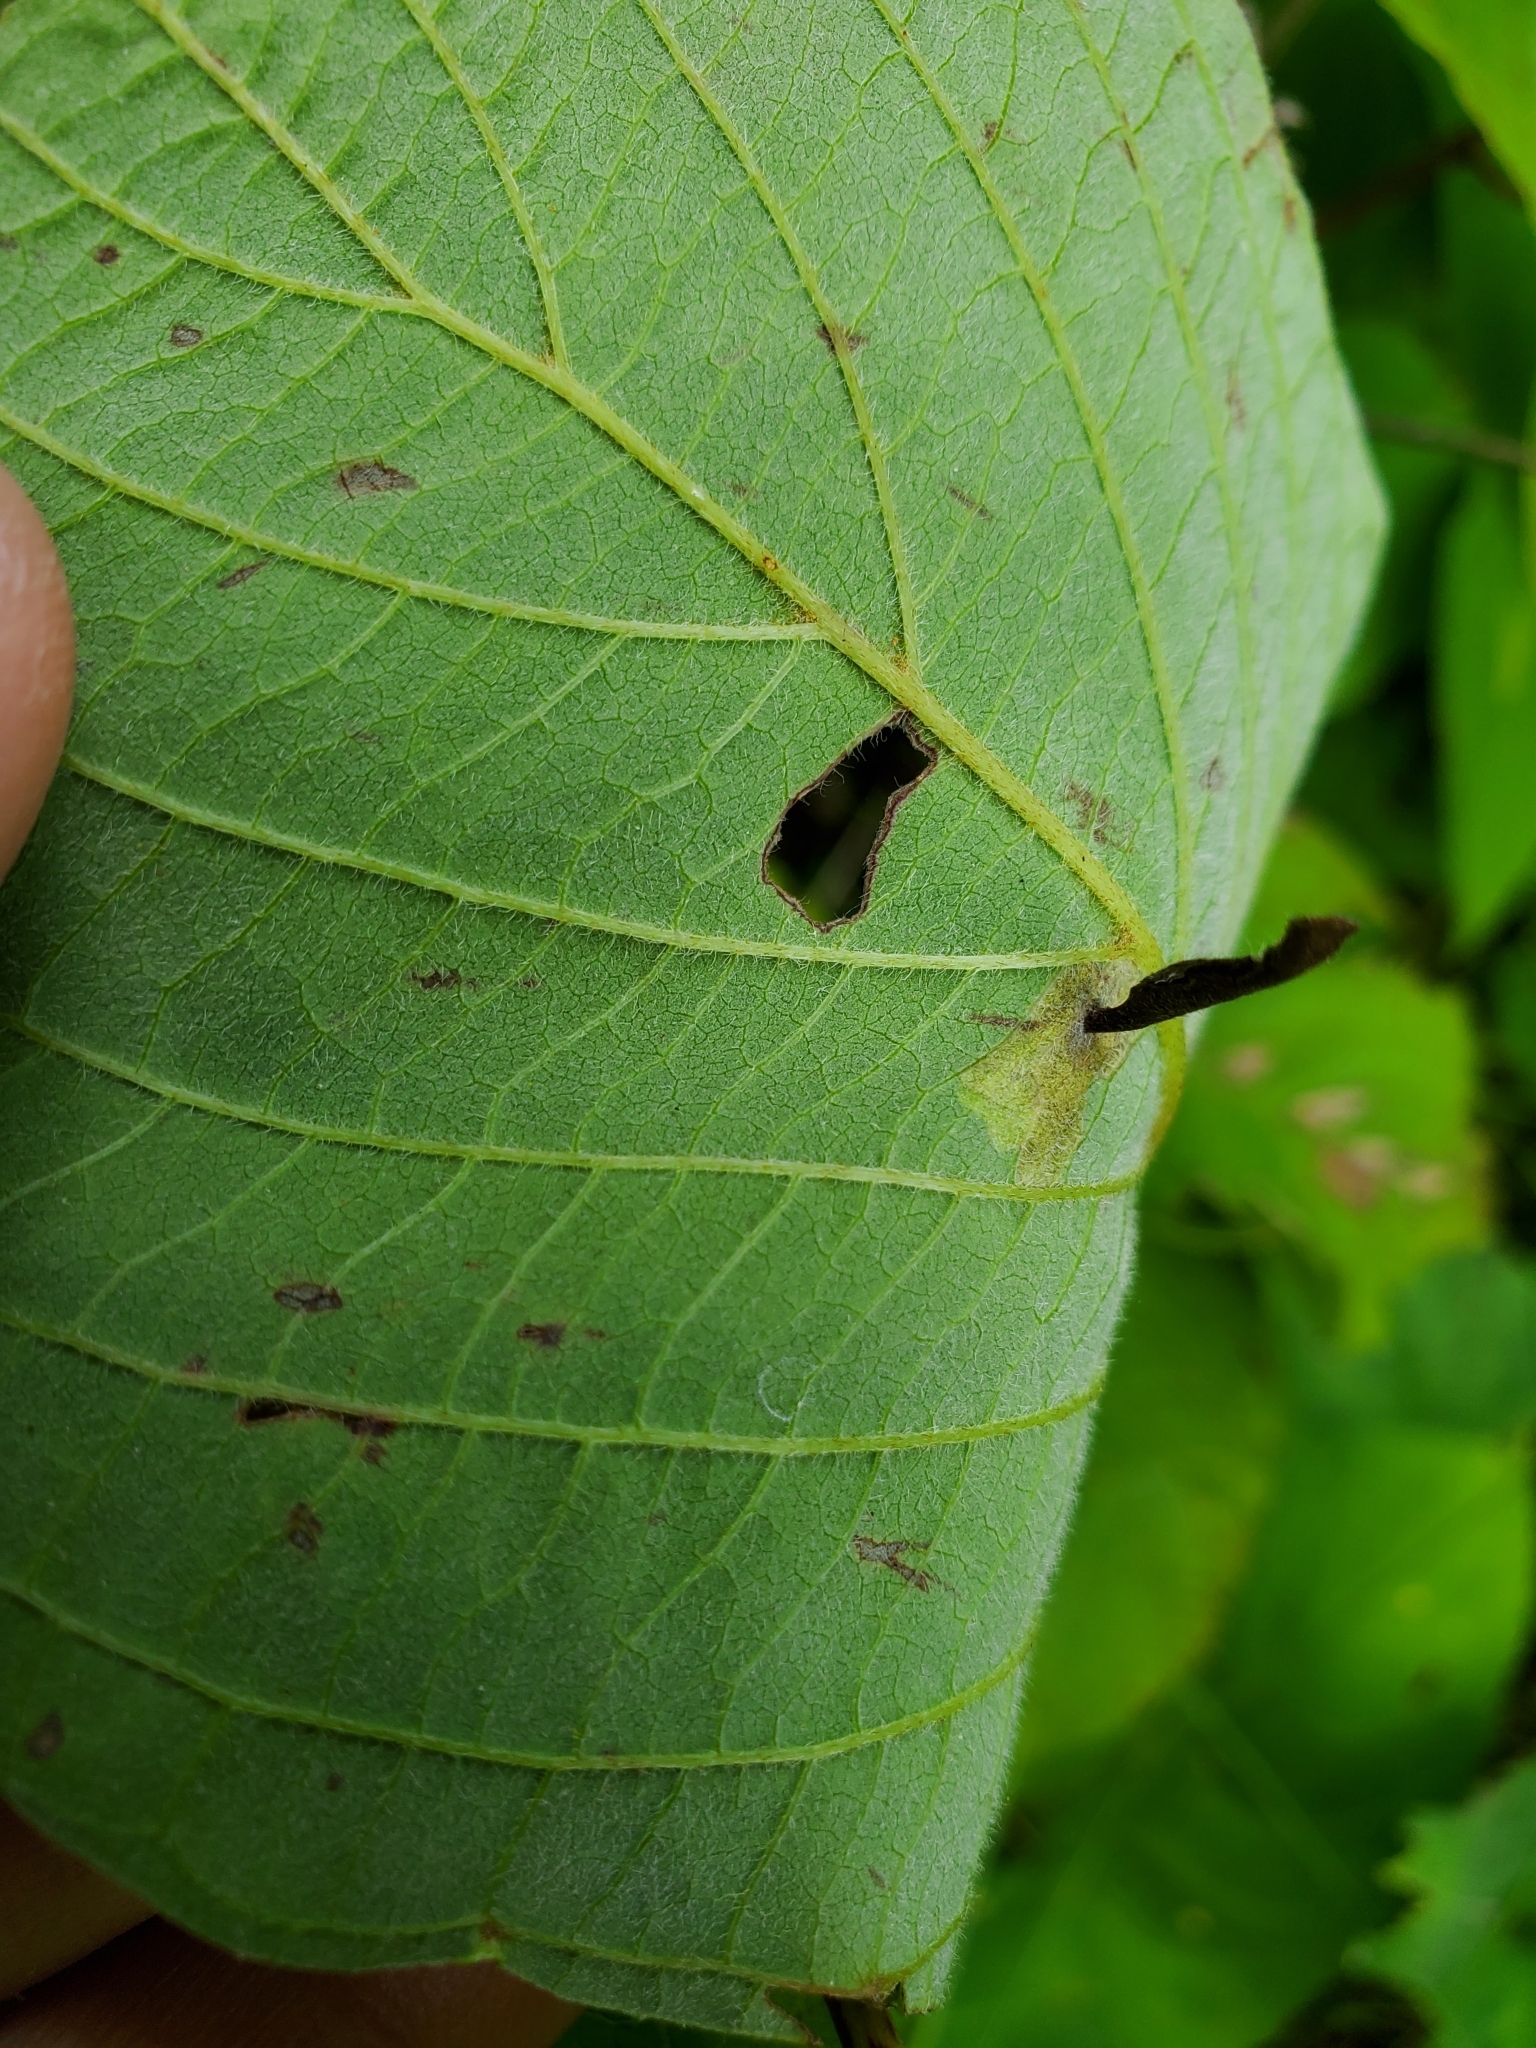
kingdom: Animalia
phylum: Arthropoda
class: Insecta
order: Lepidoptera
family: Coleophoridae
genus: Coleophora
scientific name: Coleophora cornella
